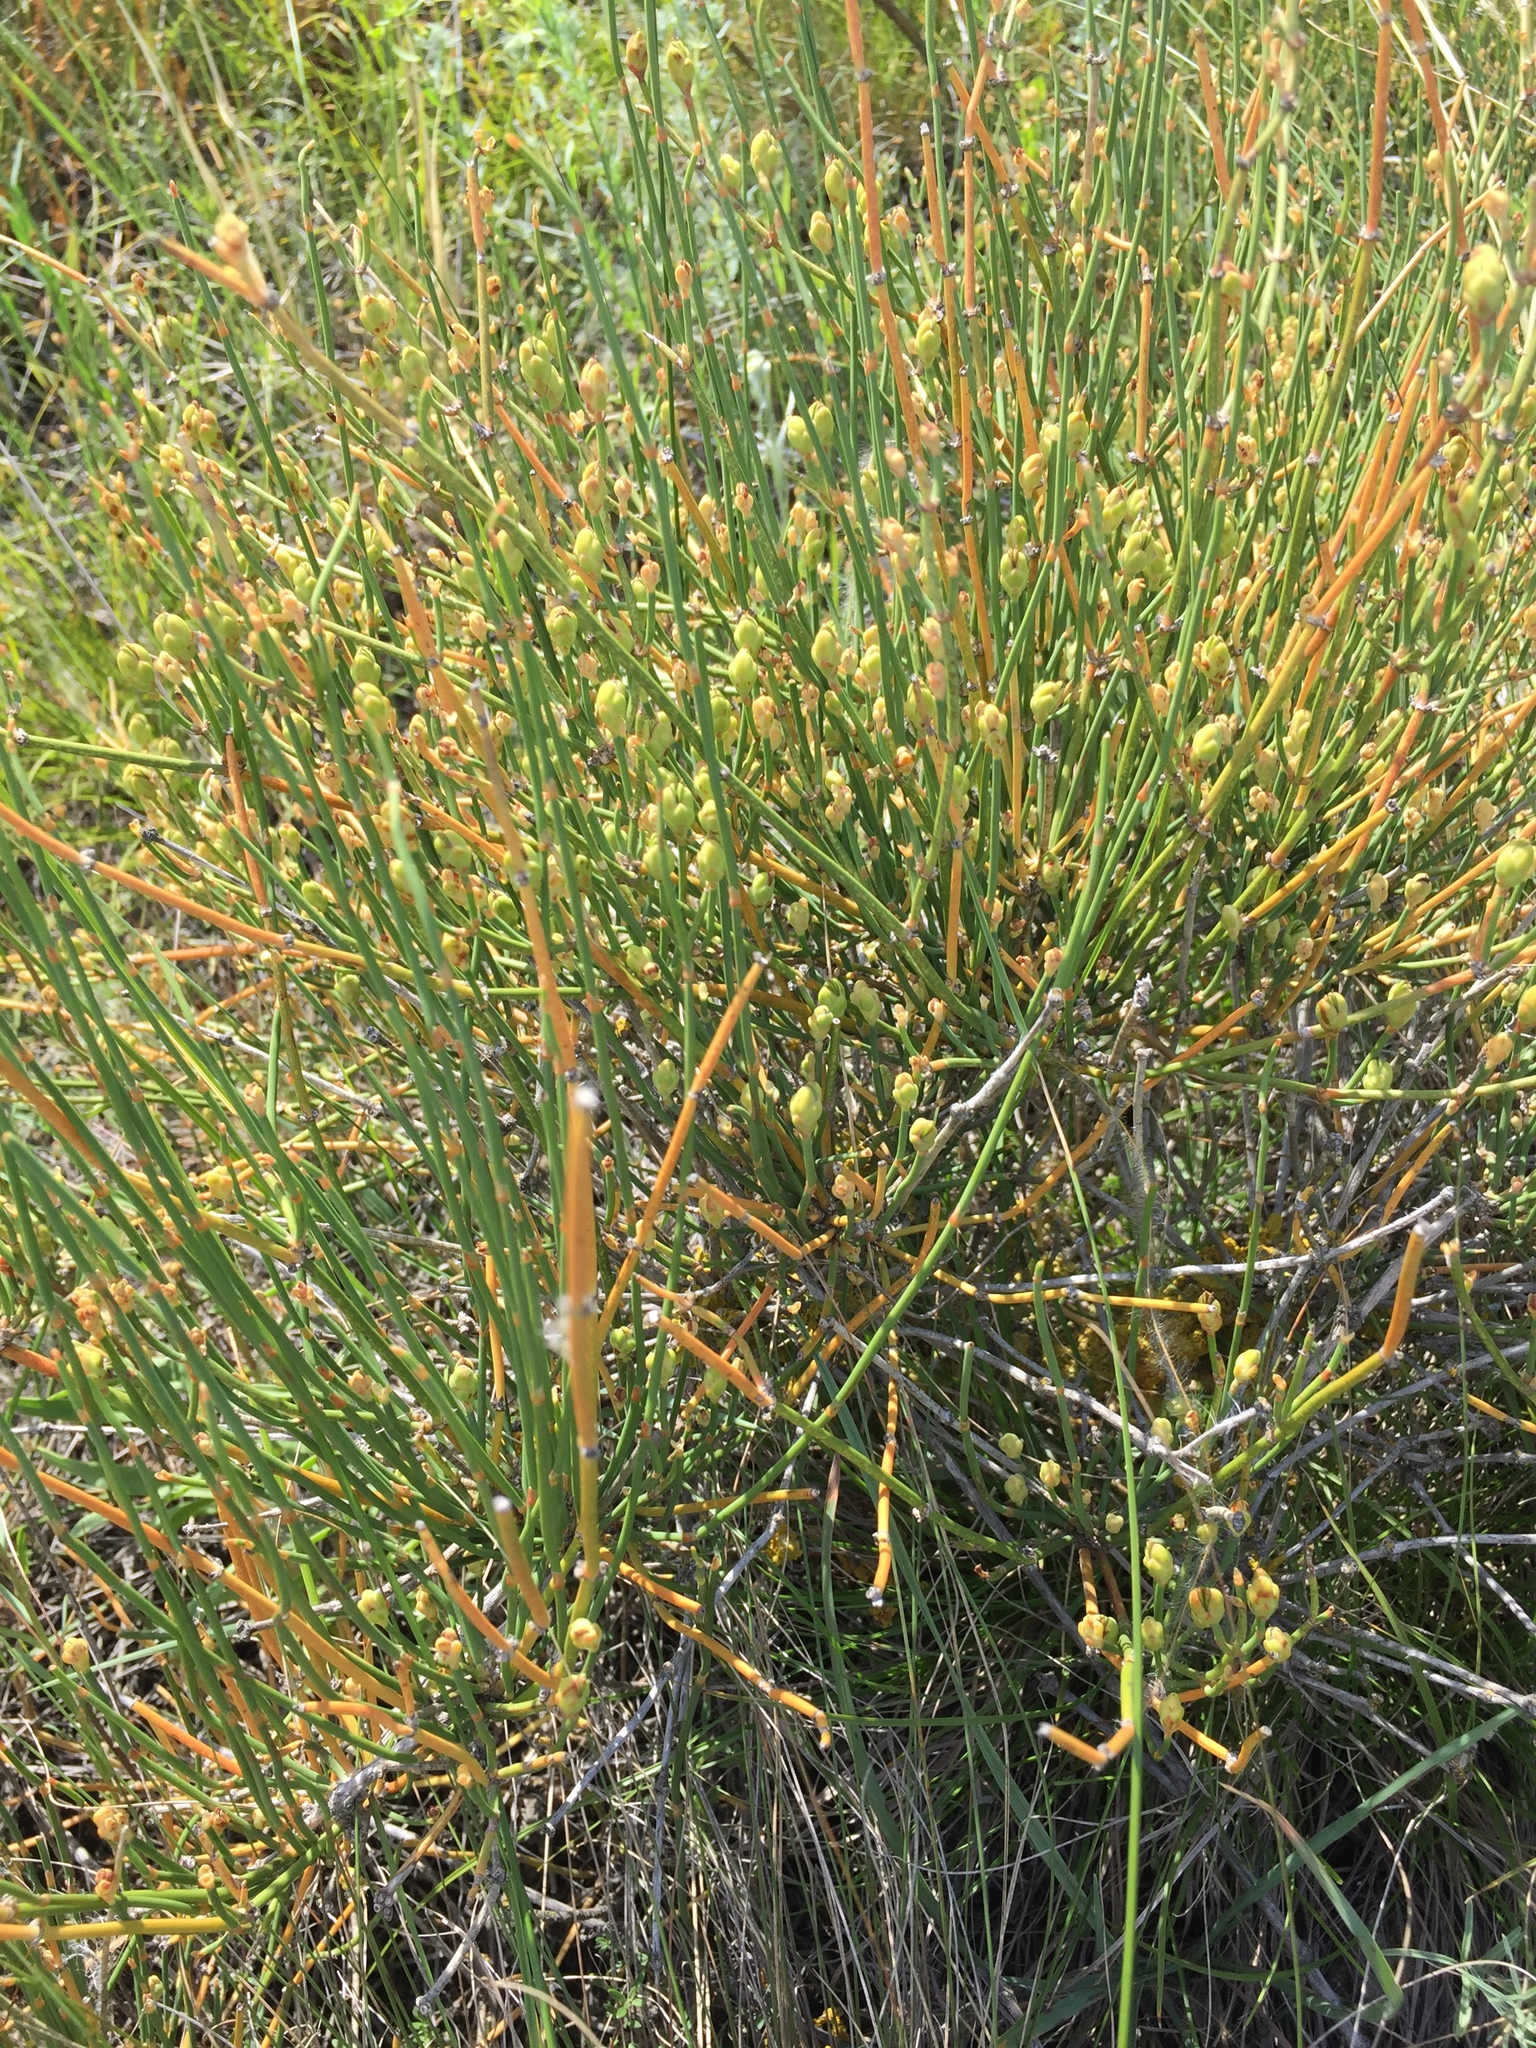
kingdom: Plantae
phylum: Tracheophyta
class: Gnetopsida
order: Ephedrales
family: Ephedraceae
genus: Ephedra
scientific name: Ephedra distachya
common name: Sea grape
